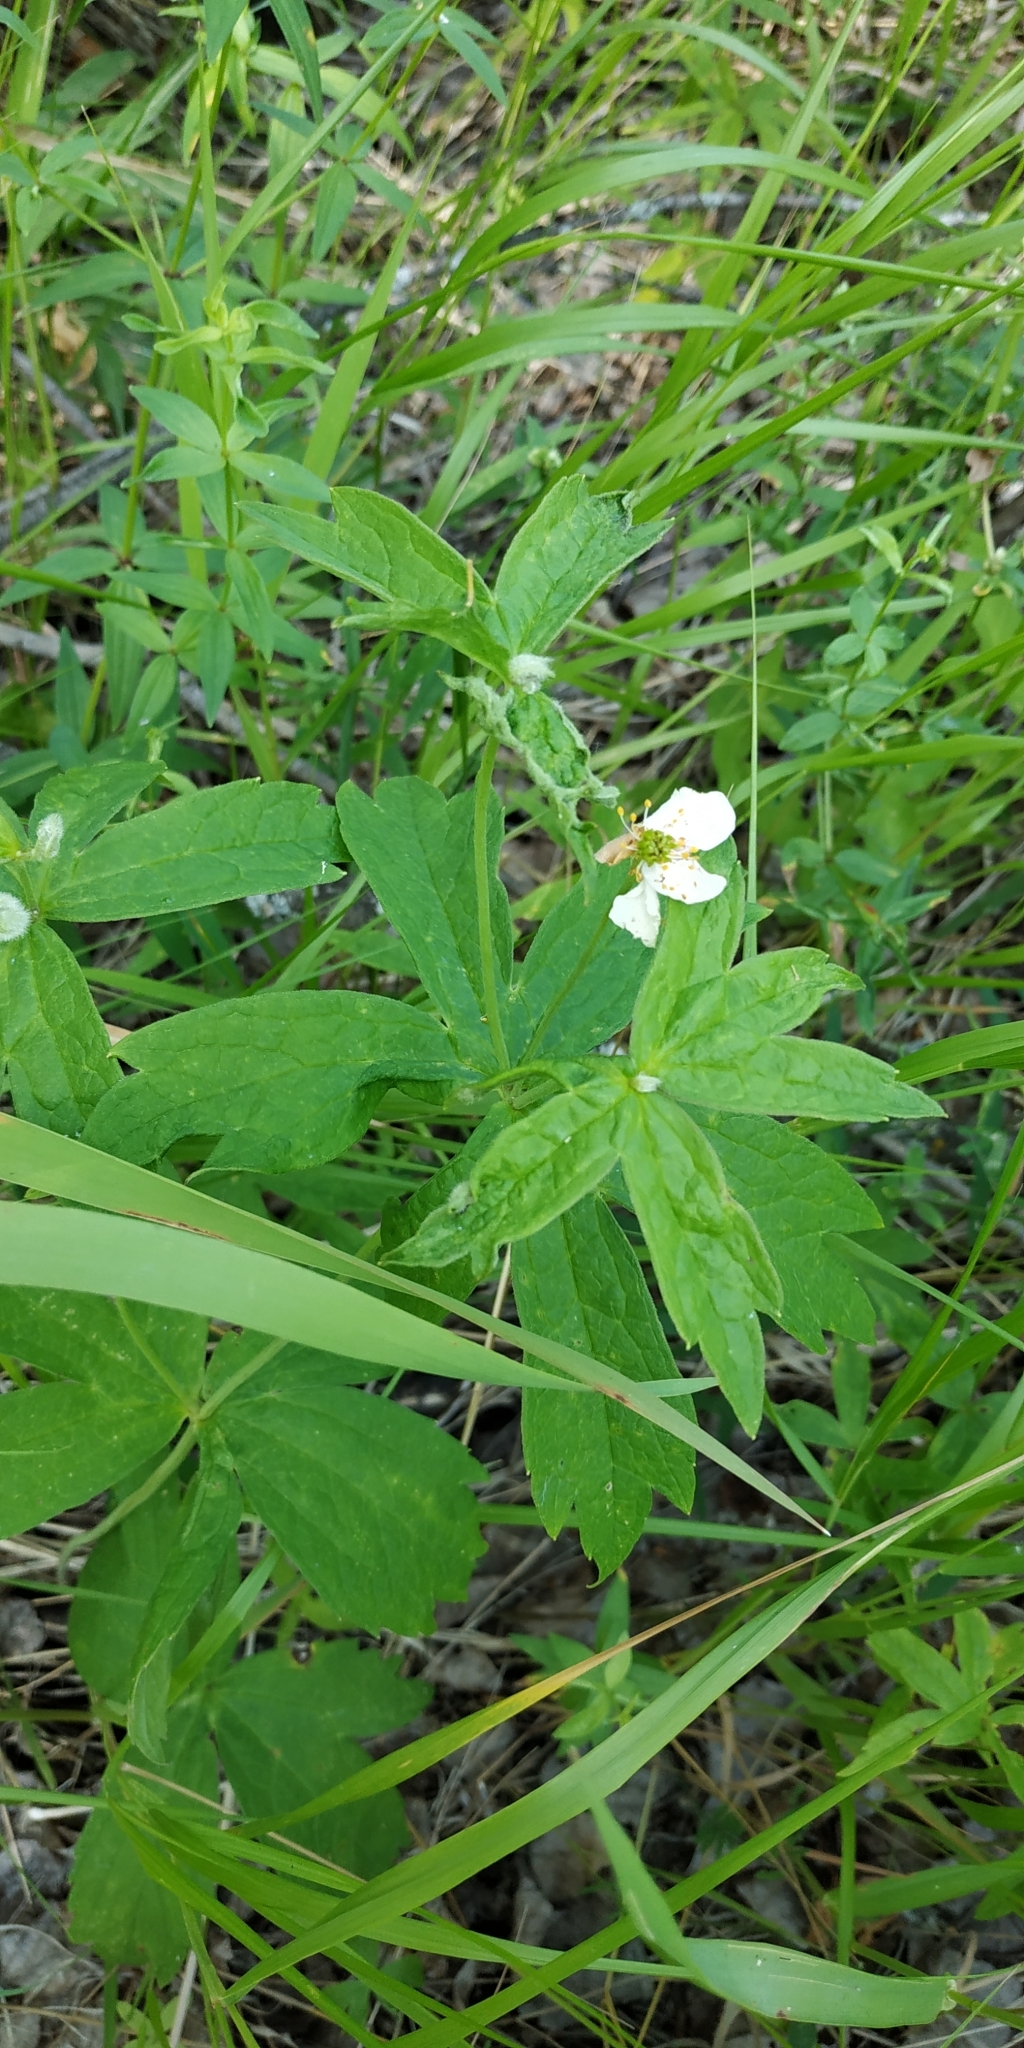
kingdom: Plantae
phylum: Tracheophyta
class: Magnoliopsida
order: Ranunculales
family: Ranunculaceae
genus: Anemonastrum
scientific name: Anemonastrum dichotomum
